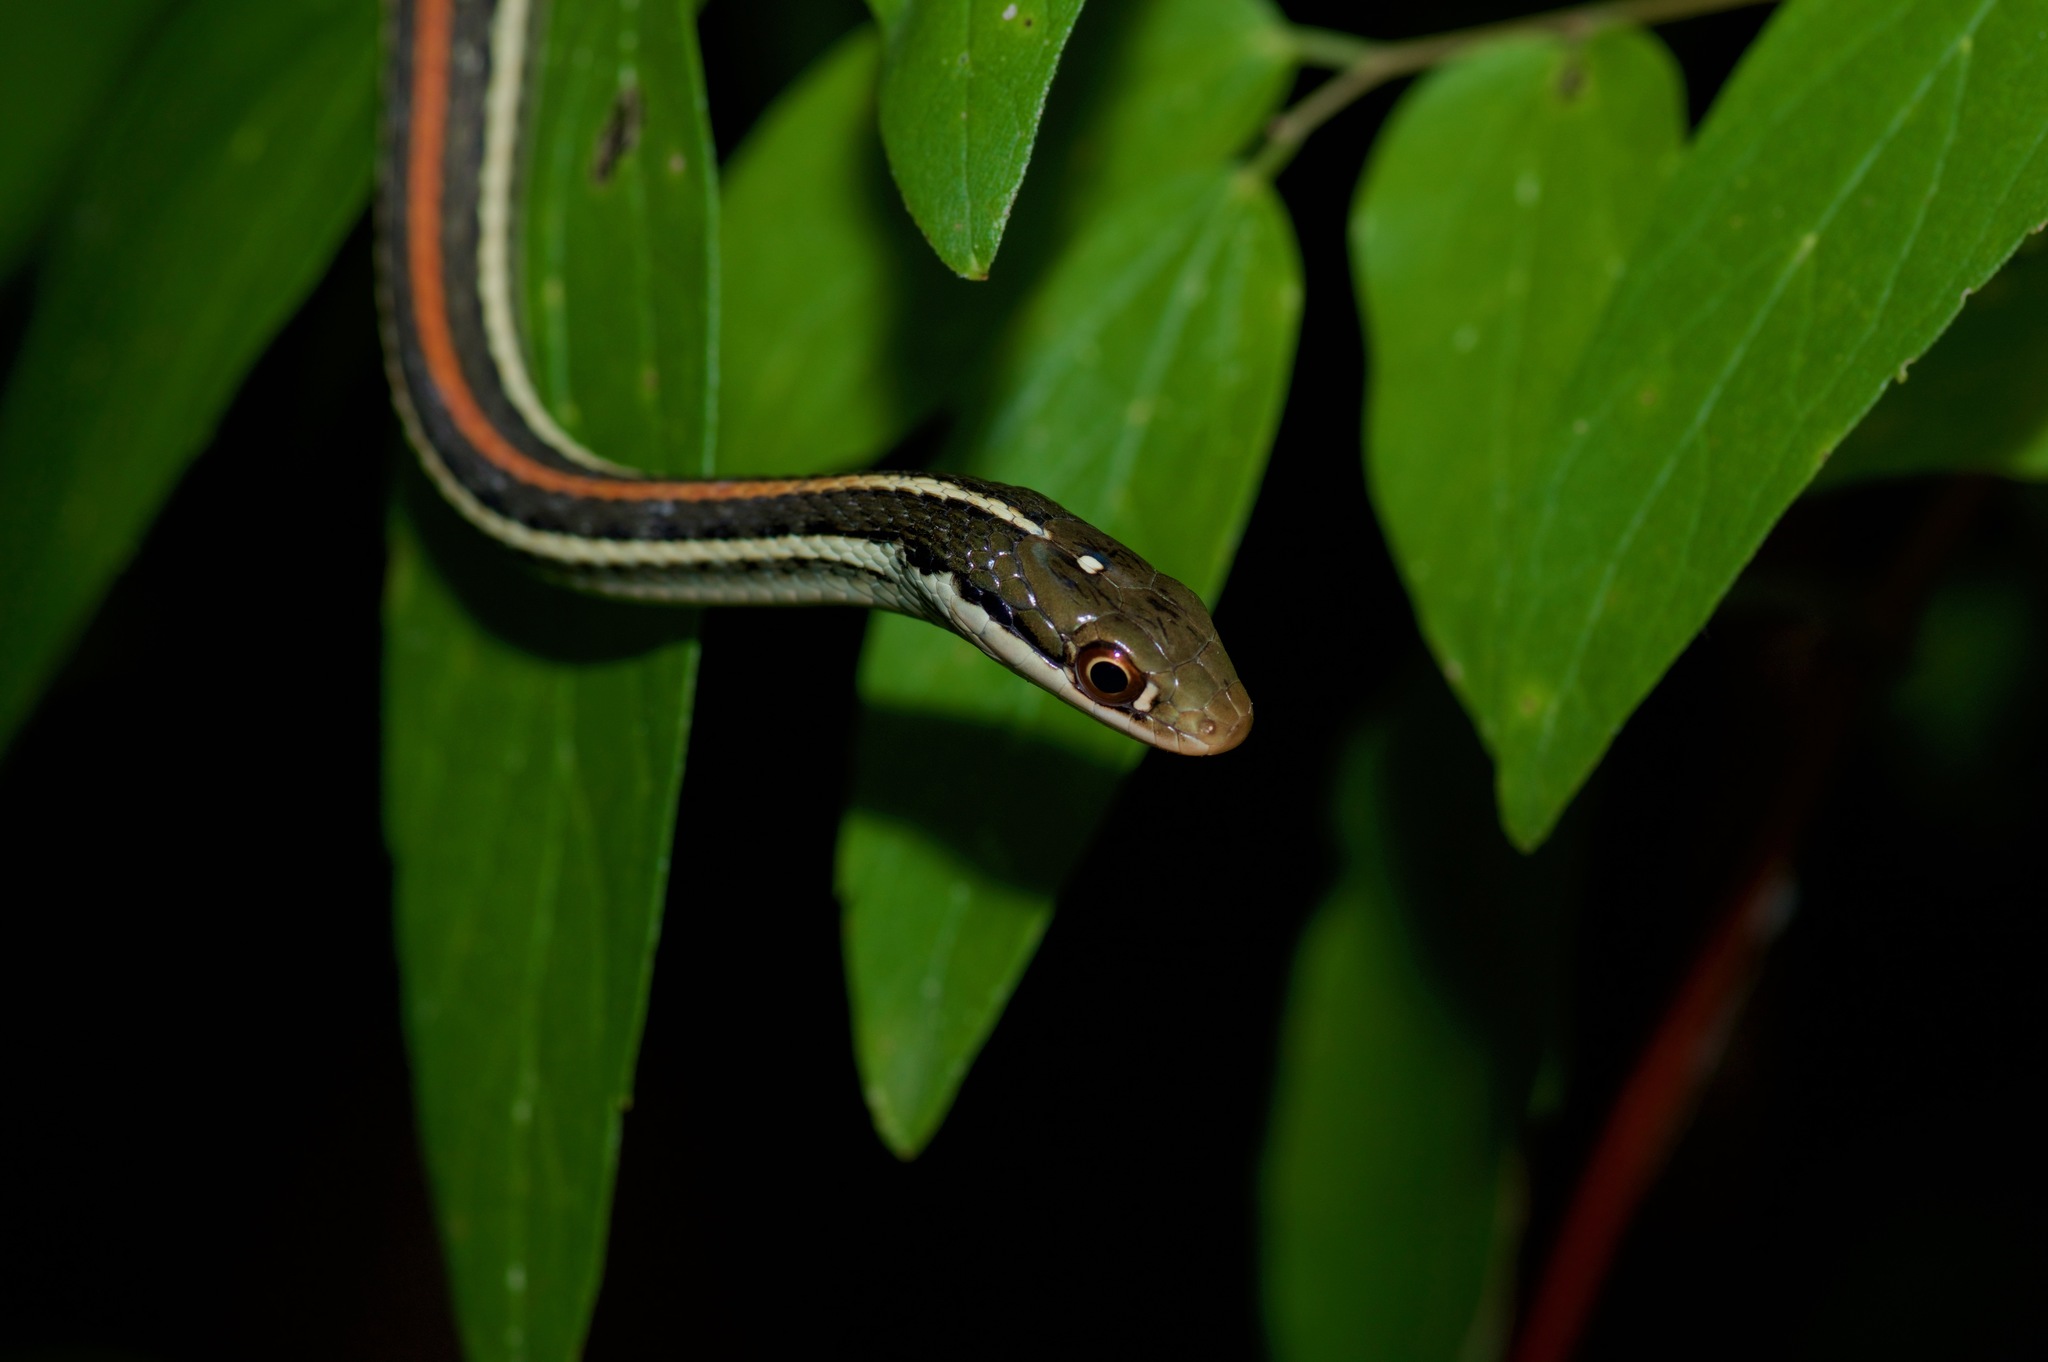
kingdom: Animalia
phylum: Chordata
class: Squamata
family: Colubridae
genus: Thamnophis
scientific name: Thamnophis proximus
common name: Western ribbon snake
